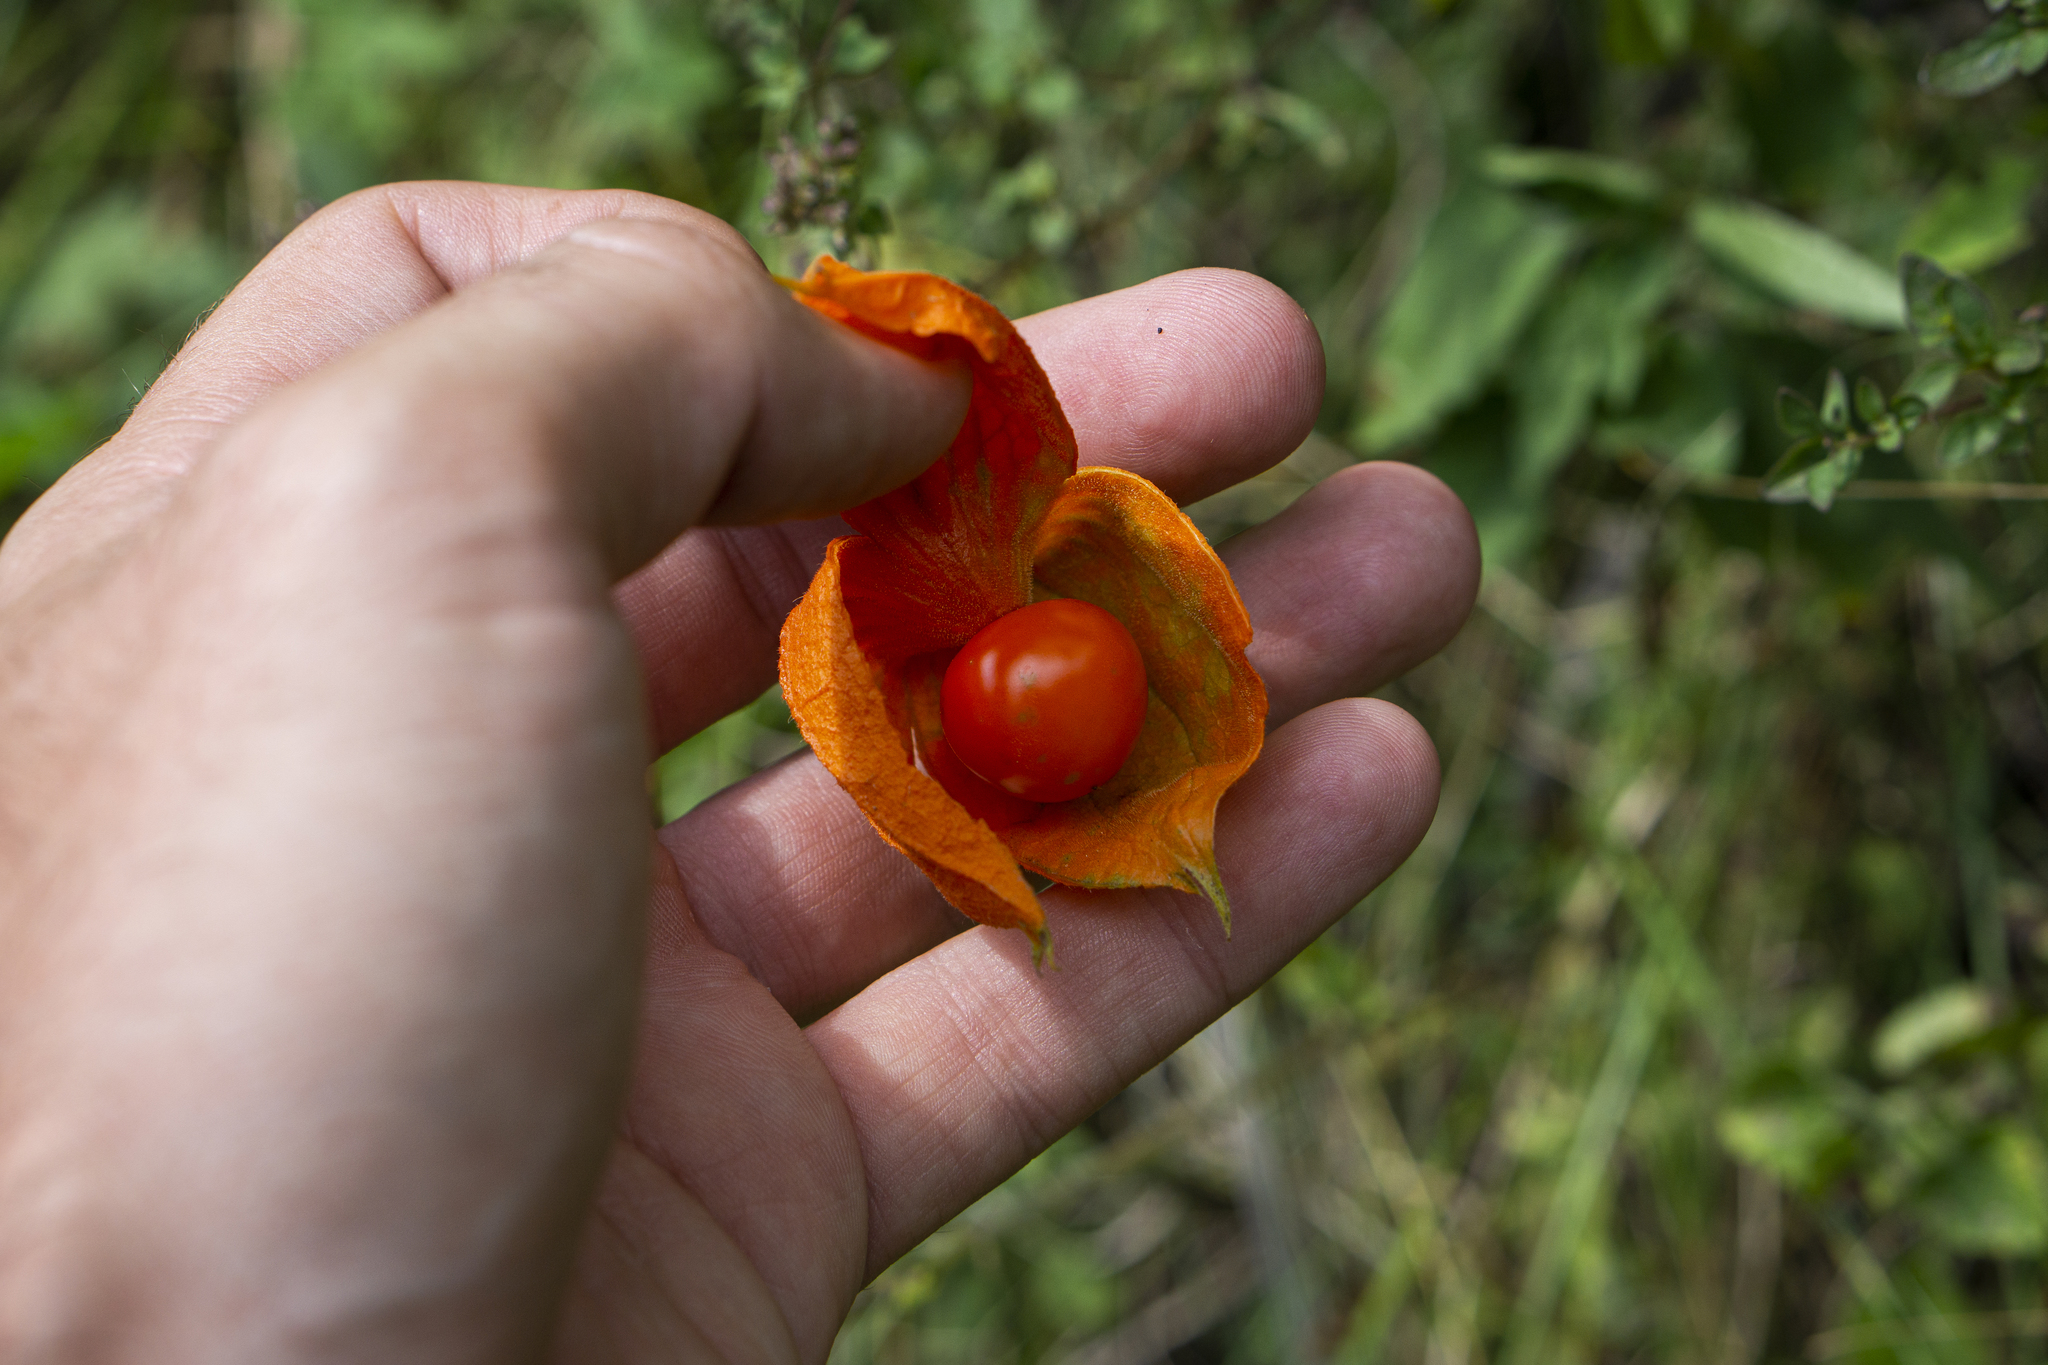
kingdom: Plantae
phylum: Tracheophyta
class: Magnoliopsida
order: Solanales
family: Solanaceae
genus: Alkekengi
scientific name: Alkekengi officinarum
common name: Japanese-lantern
